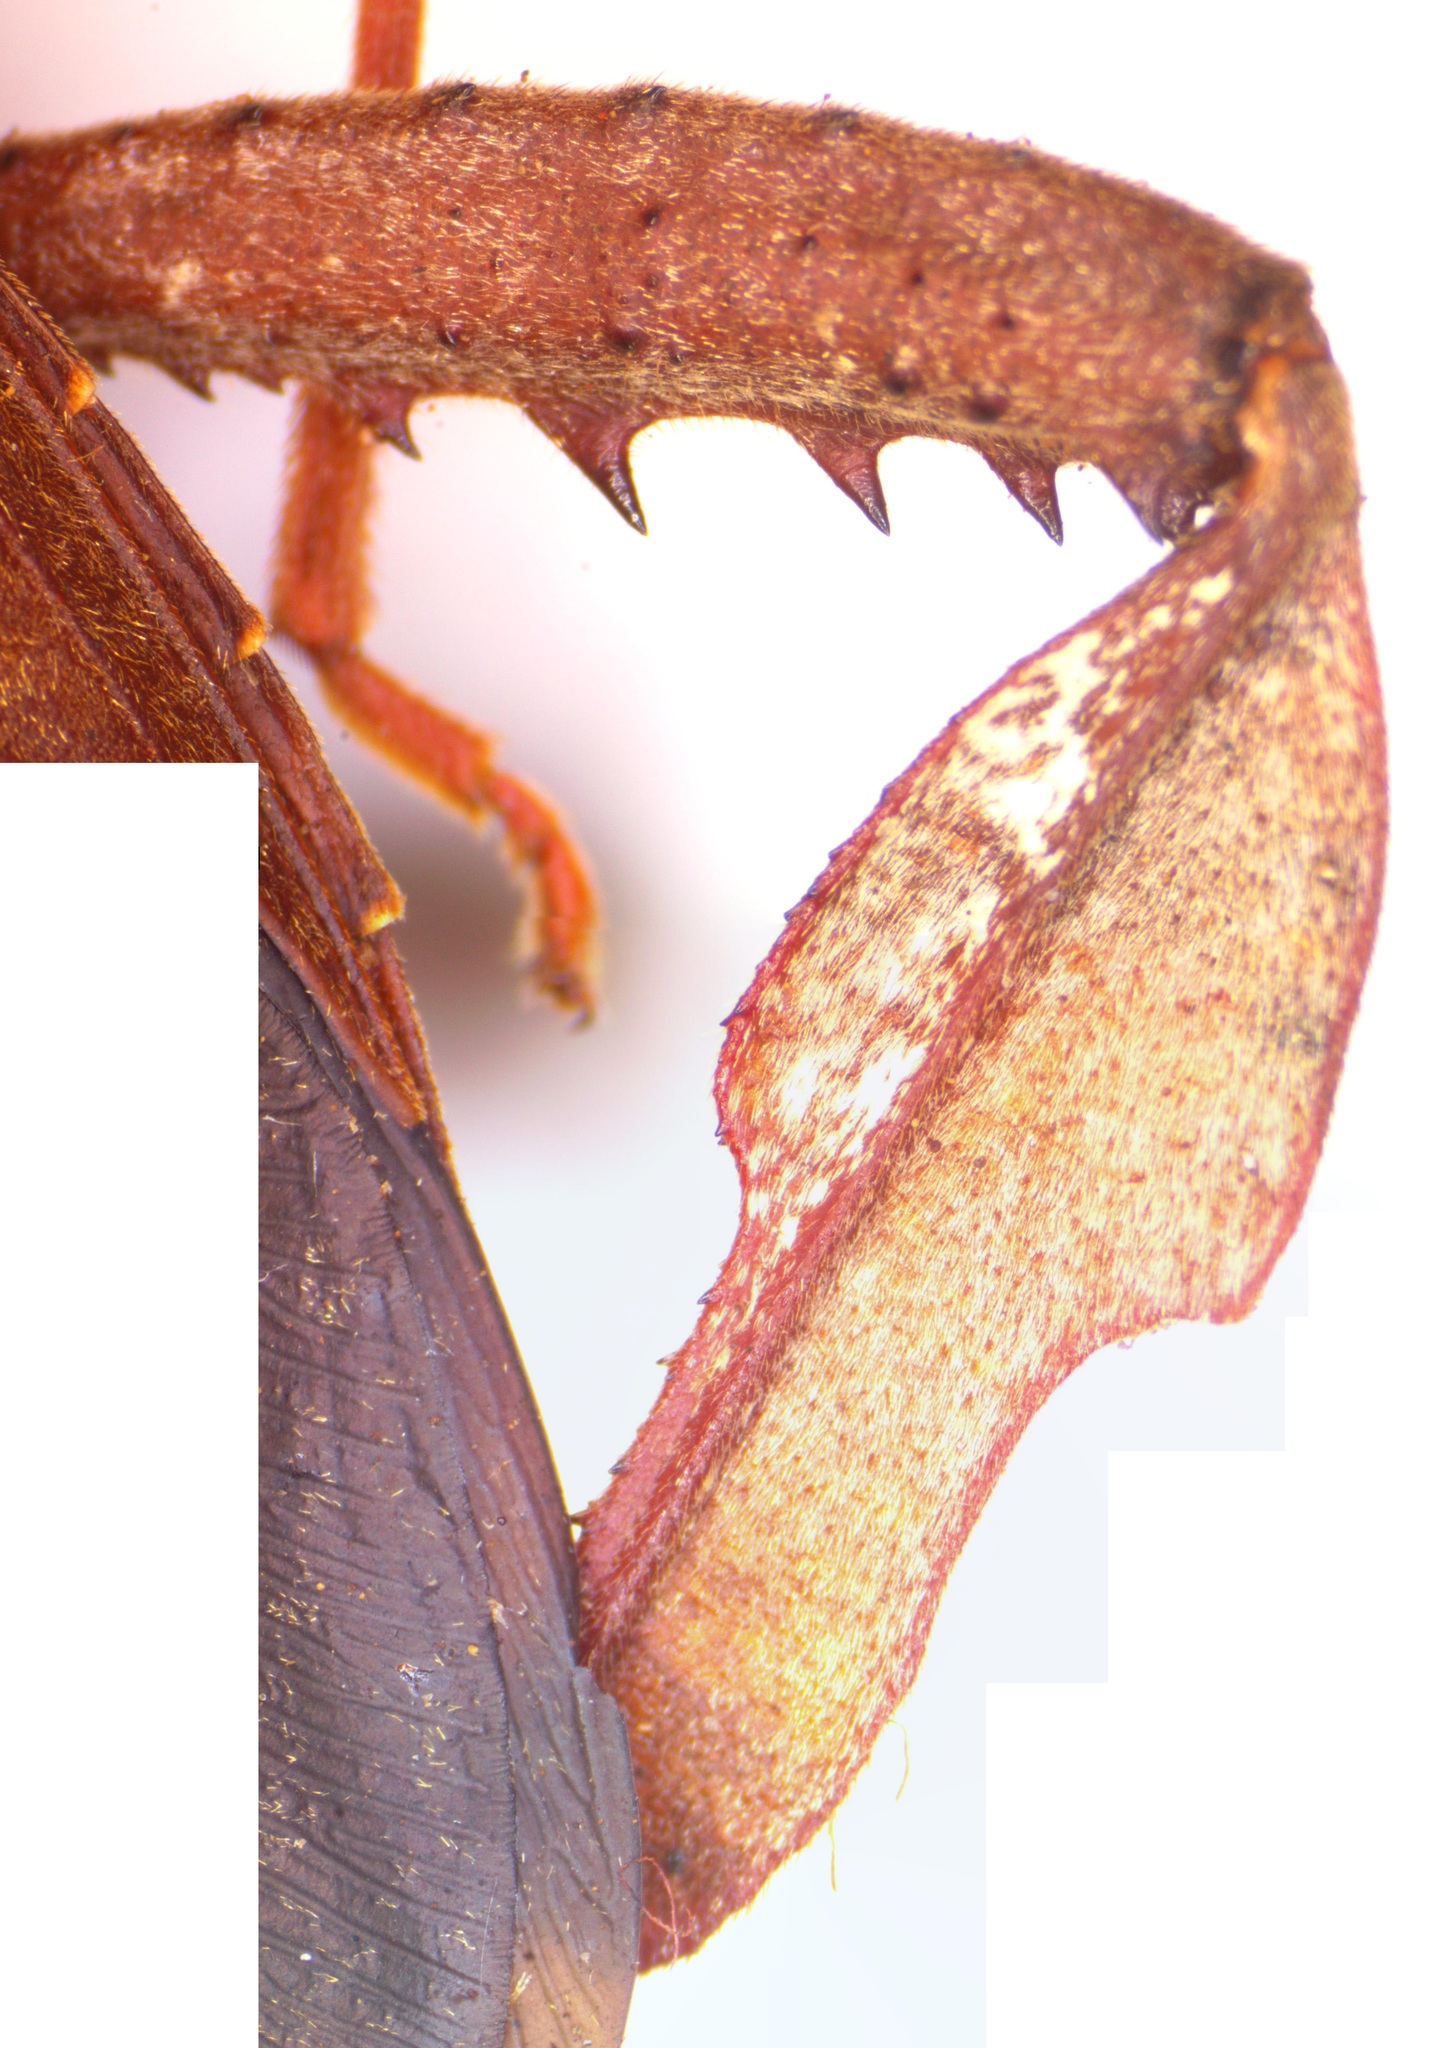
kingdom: Animalia
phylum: Arthropoda
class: Insecta
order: Hemiptera
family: Coreidae
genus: Acanthocephala
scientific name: Acanthocephala alata
